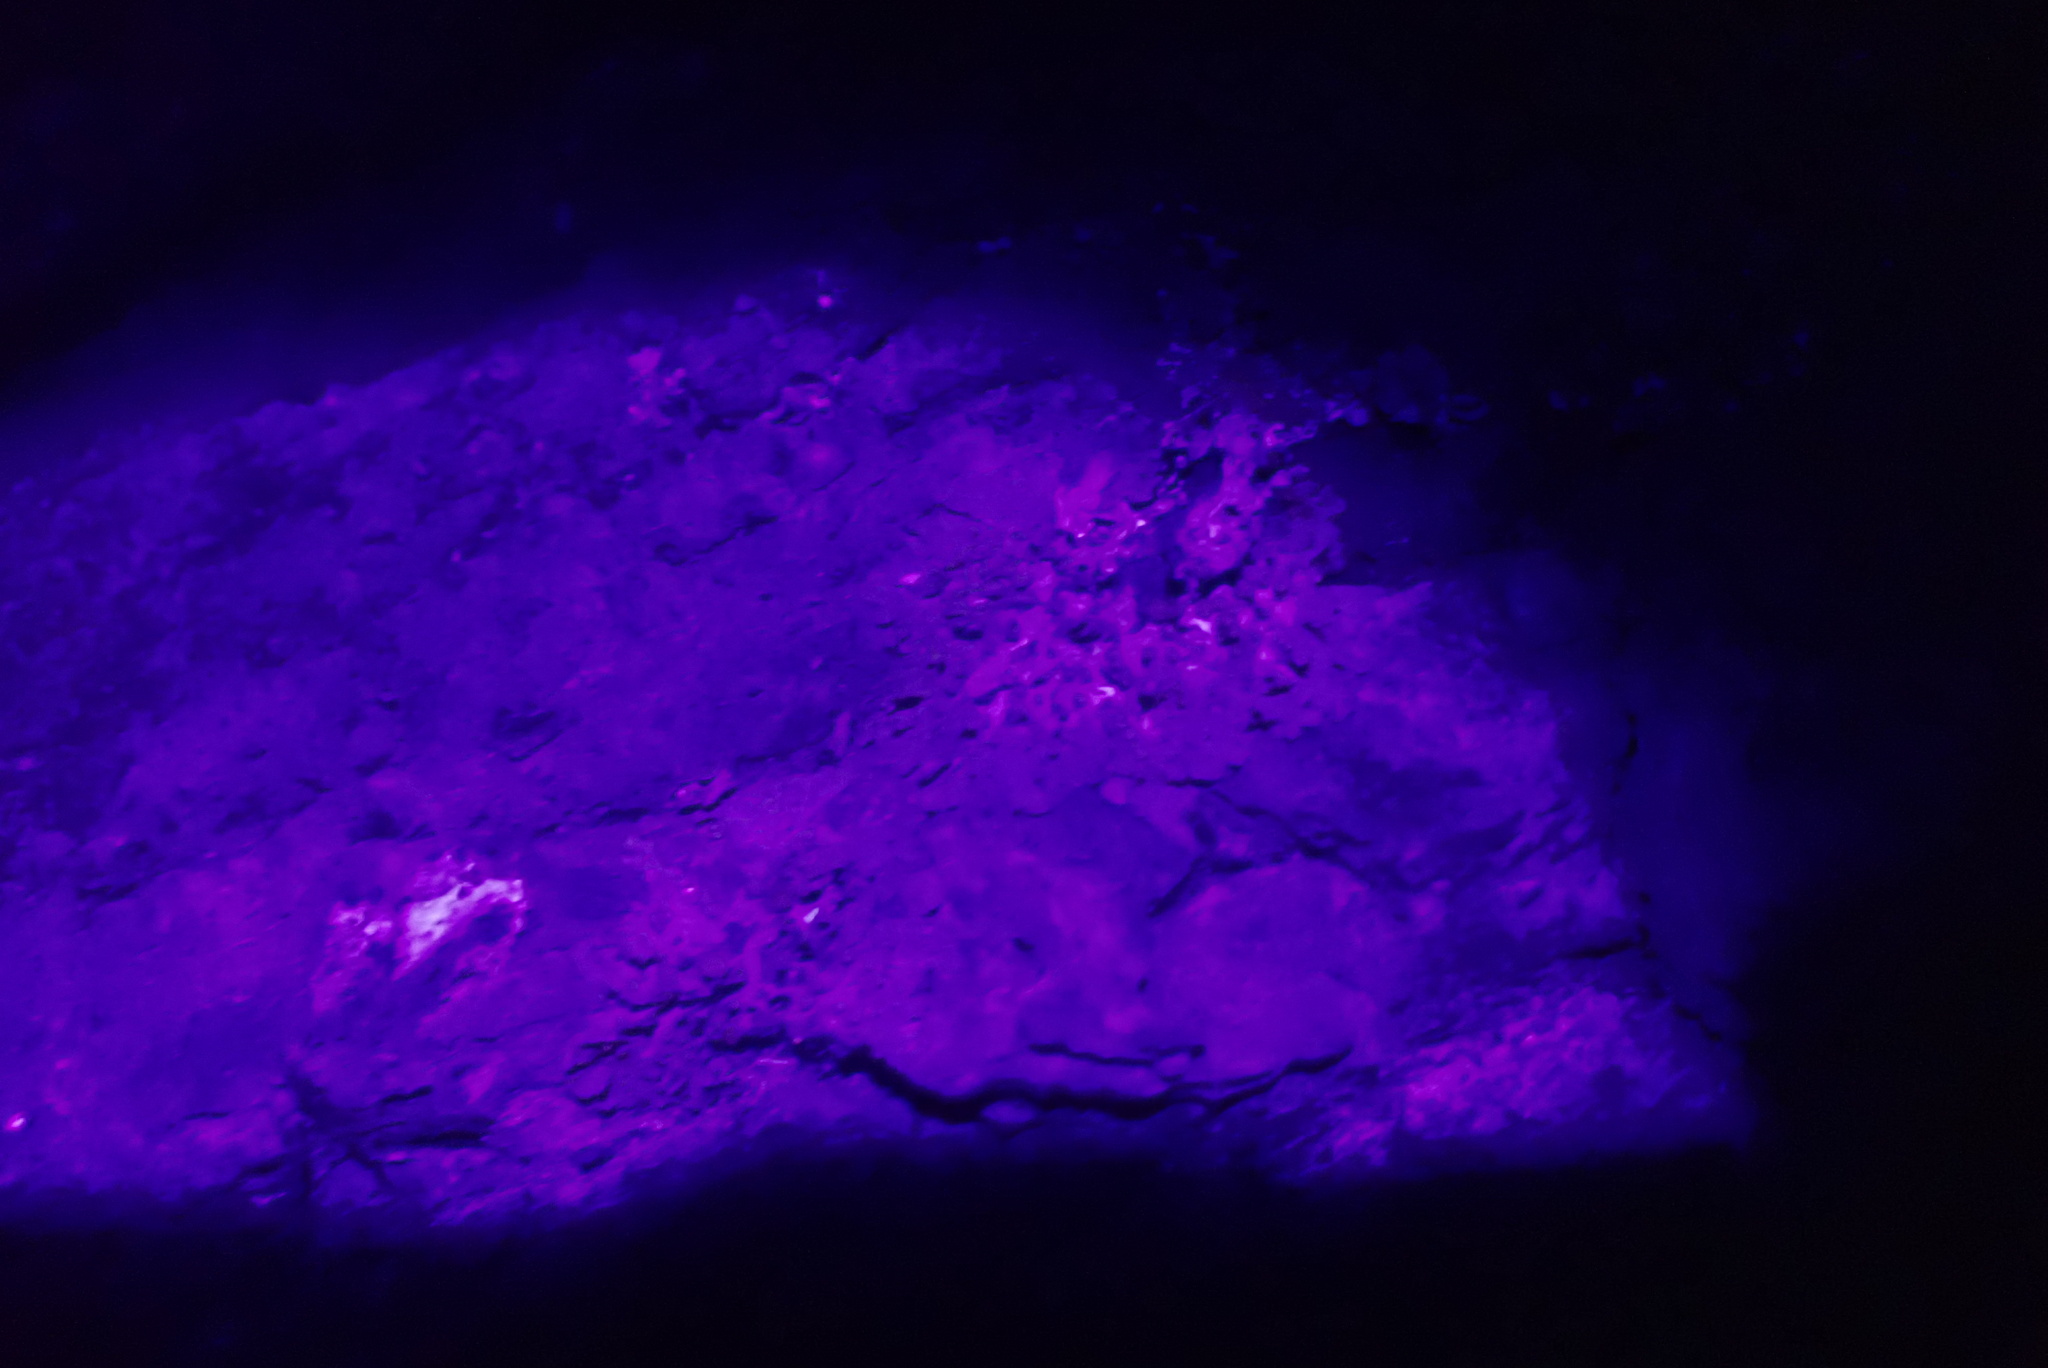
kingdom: Fungi
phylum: Ascomycota
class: Lecanoromycetes
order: Teloschistales
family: Teloschistaceae
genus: Xanthoria
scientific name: Xanthoria parietina
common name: Common orange lichen
